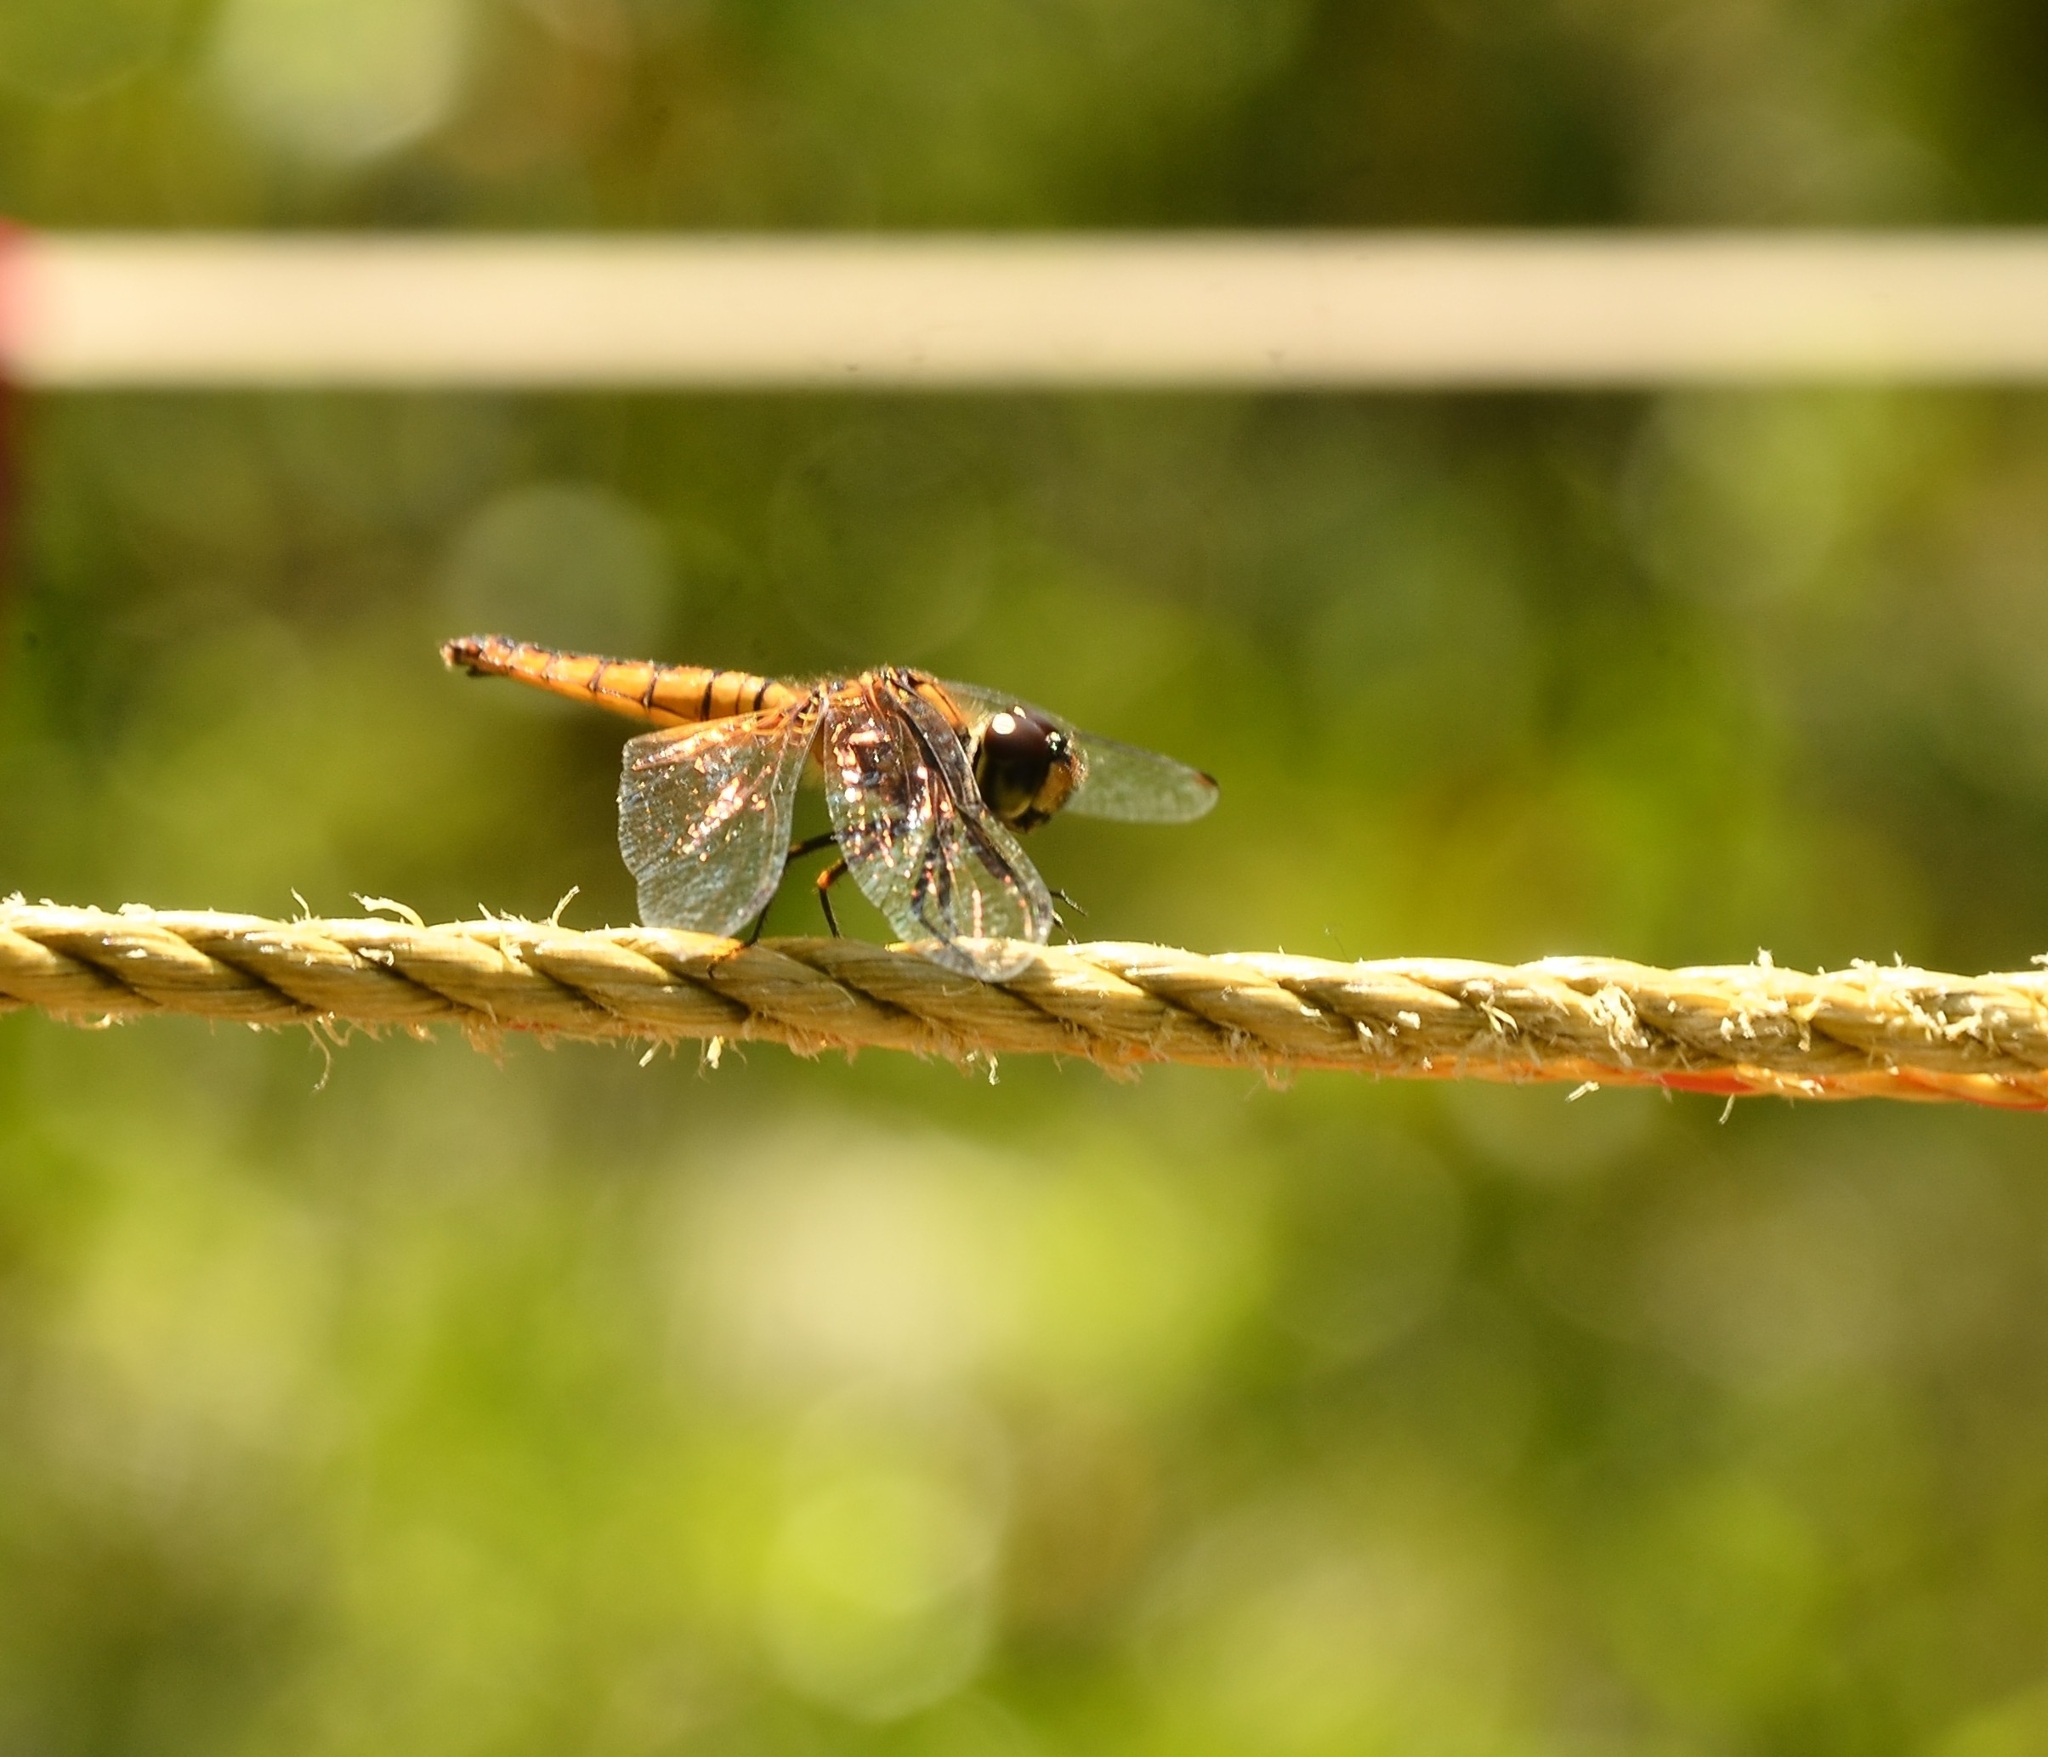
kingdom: Animalia
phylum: Arthropoda
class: Insecta
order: Odonata
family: Libellulidae
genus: Aethriamanta
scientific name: Aethriamanta brevipennis
